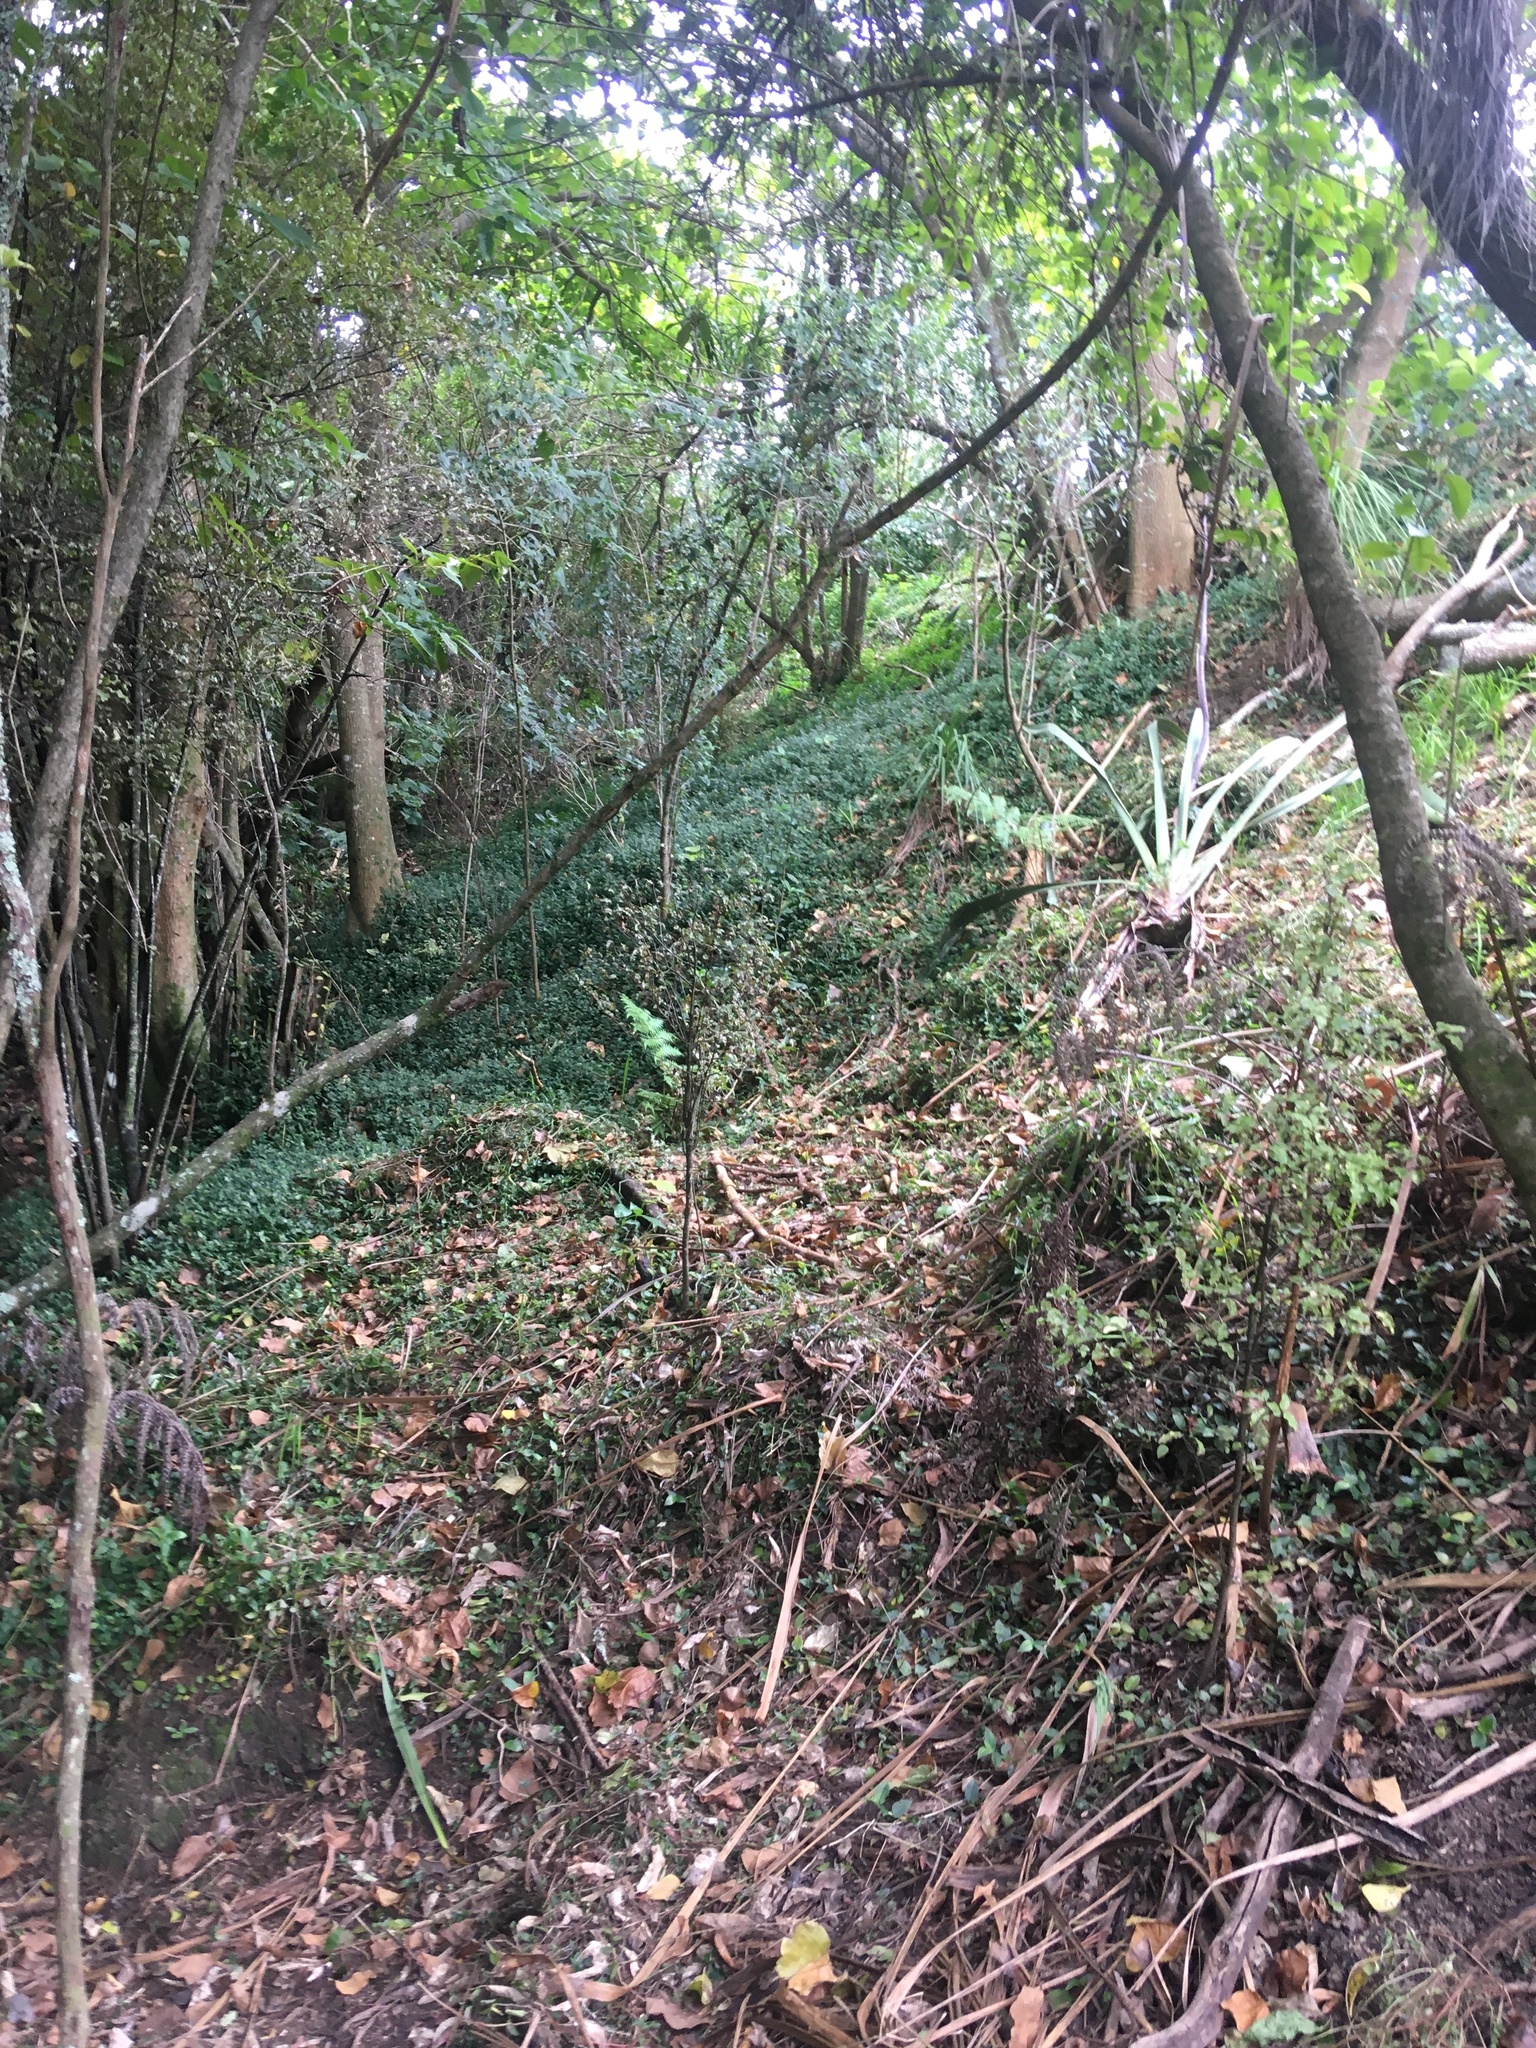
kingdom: Plantae
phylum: Tracheophyta
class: Liliopsida
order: Commelinales
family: Commelinaceae
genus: Tradescantia
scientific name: Tradescantia fluminensis
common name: Wandering-jew
